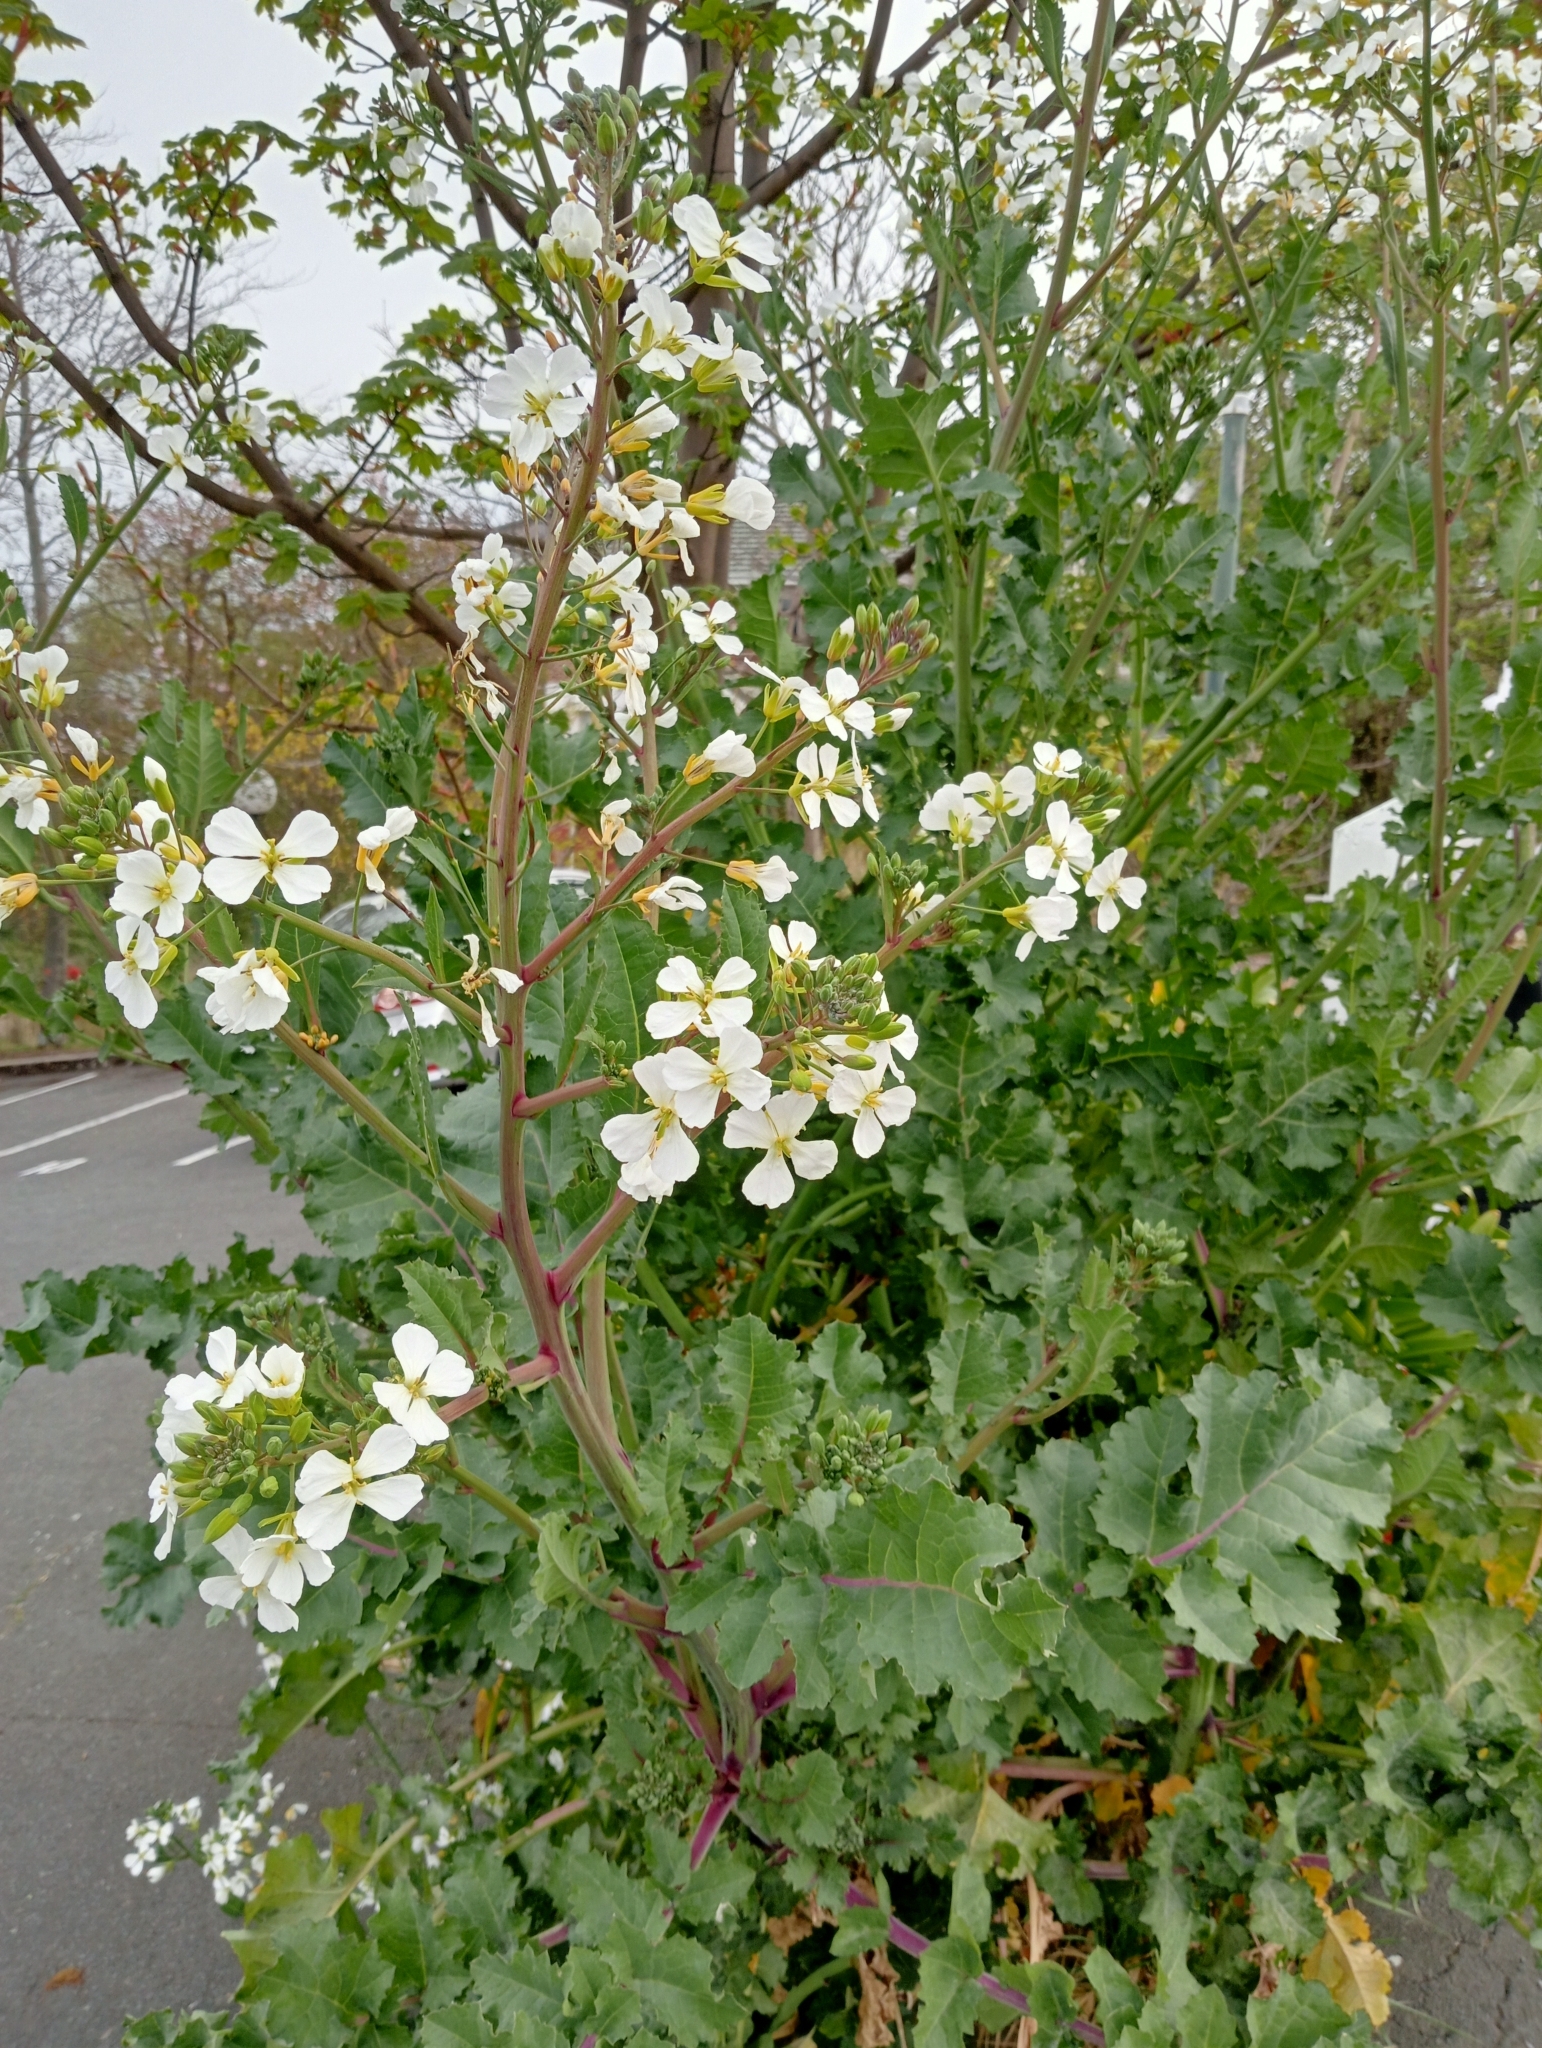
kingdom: Plantae
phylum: Tracheophyta
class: Magnoliopsida
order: Brassicales
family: Brassicaceae
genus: Raphanus
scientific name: Raphanus raphanistrum
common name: Wild radish
